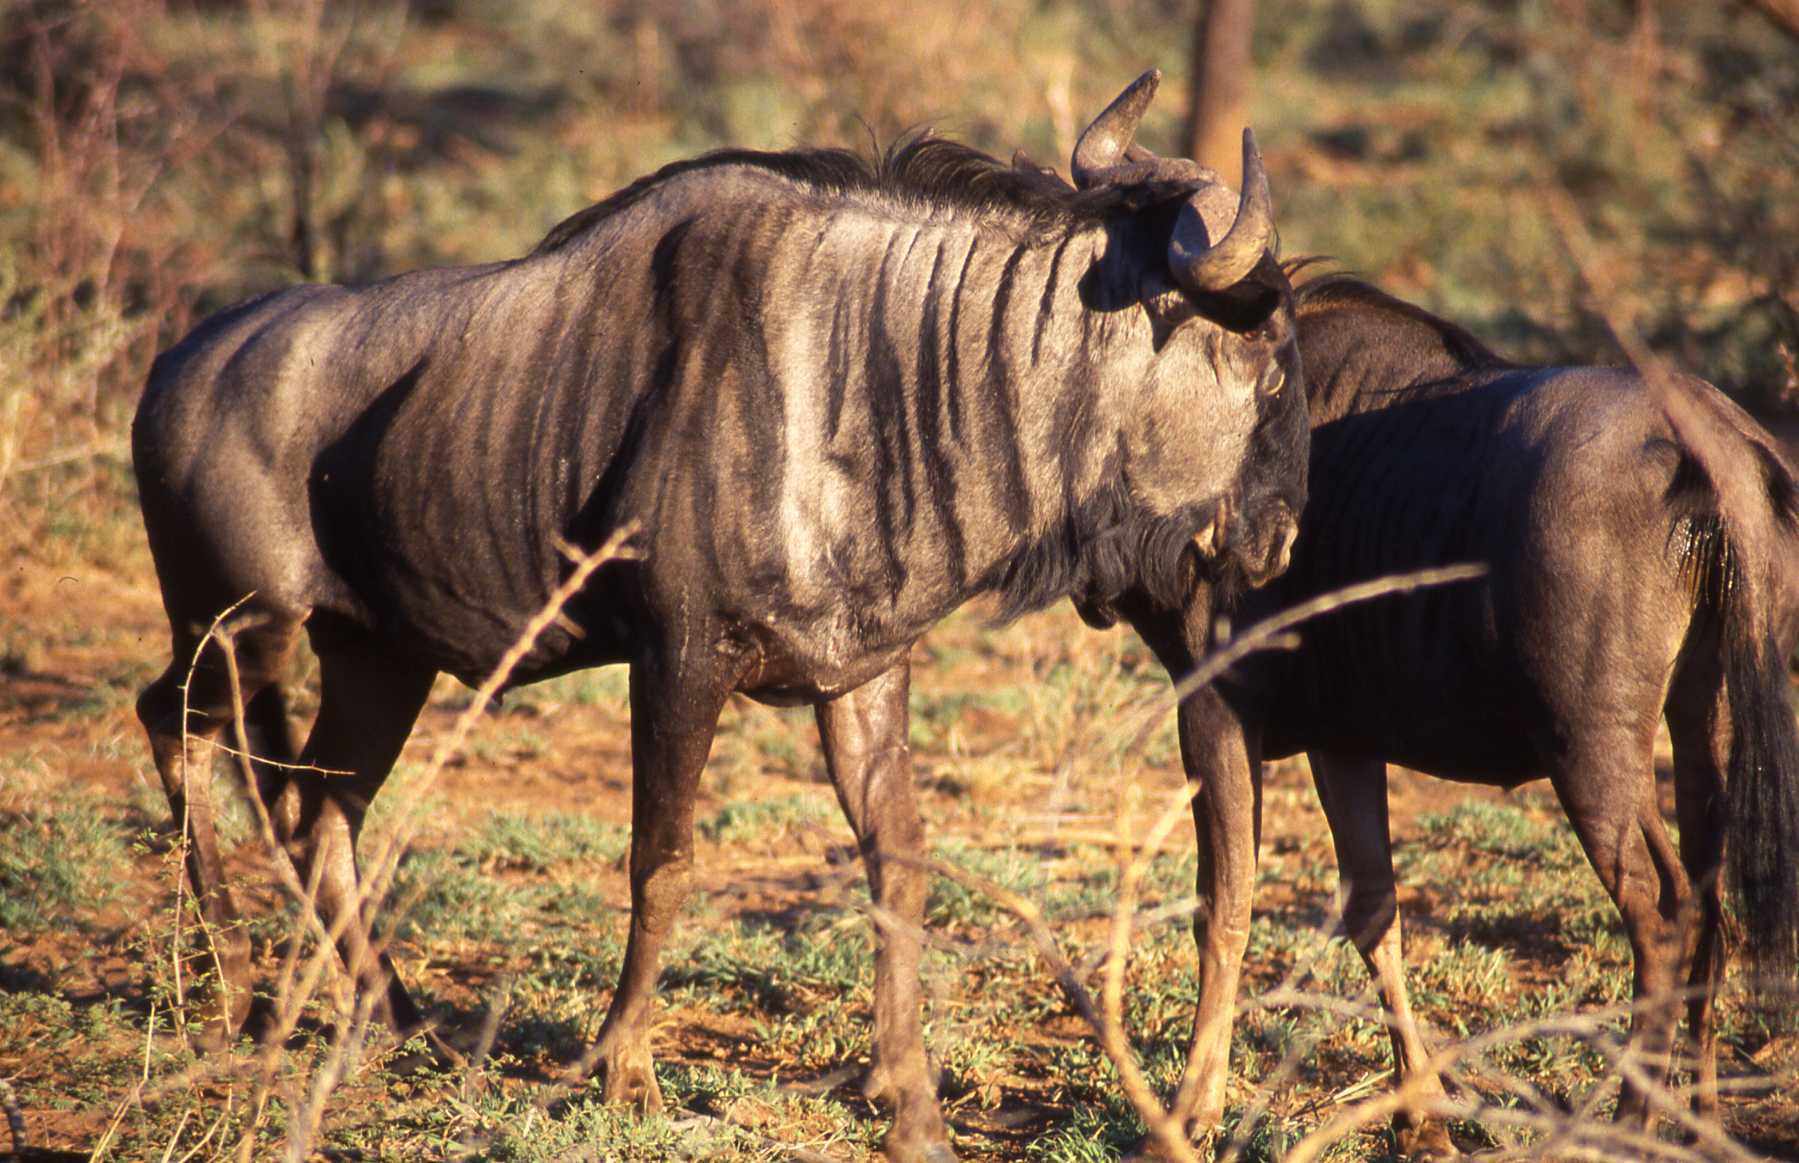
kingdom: Animalia
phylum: Chordata
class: Mammalia
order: Artiodactyla
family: Bovidae
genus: Connochaetes
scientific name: Connochaetes taurinus
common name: Blue wildebeest
